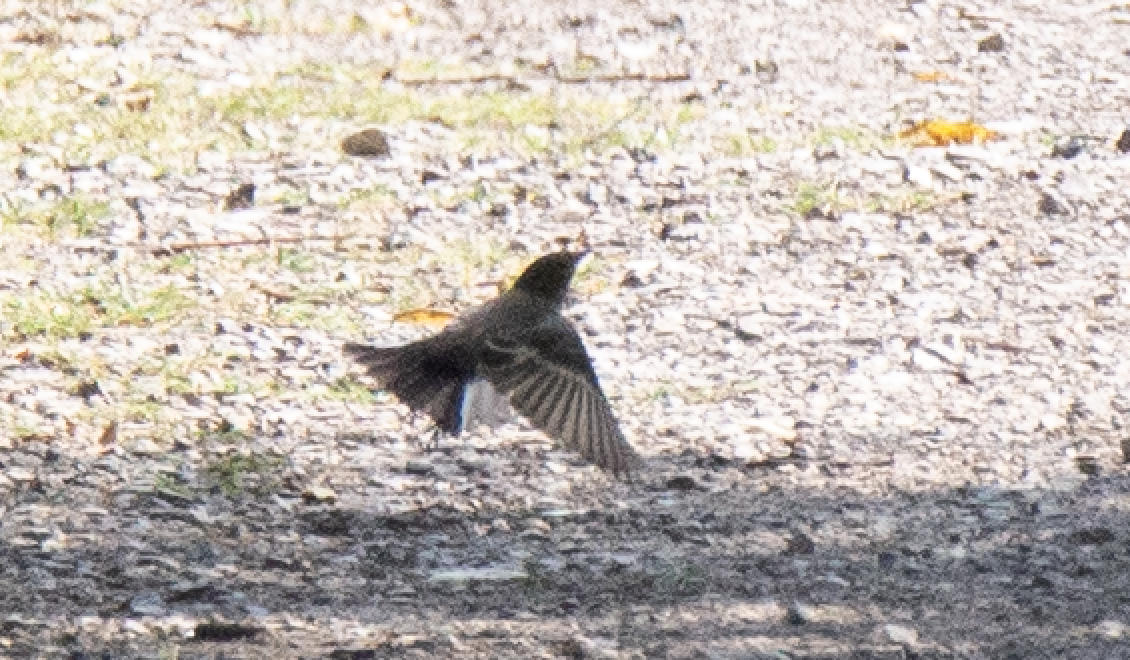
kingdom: Animalia
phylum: Chordata
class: Aves
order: Passeriformes
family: Muscicapidae
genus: Ficedula
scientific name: Ficedula hypoleuca
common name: European pied flycatcher
